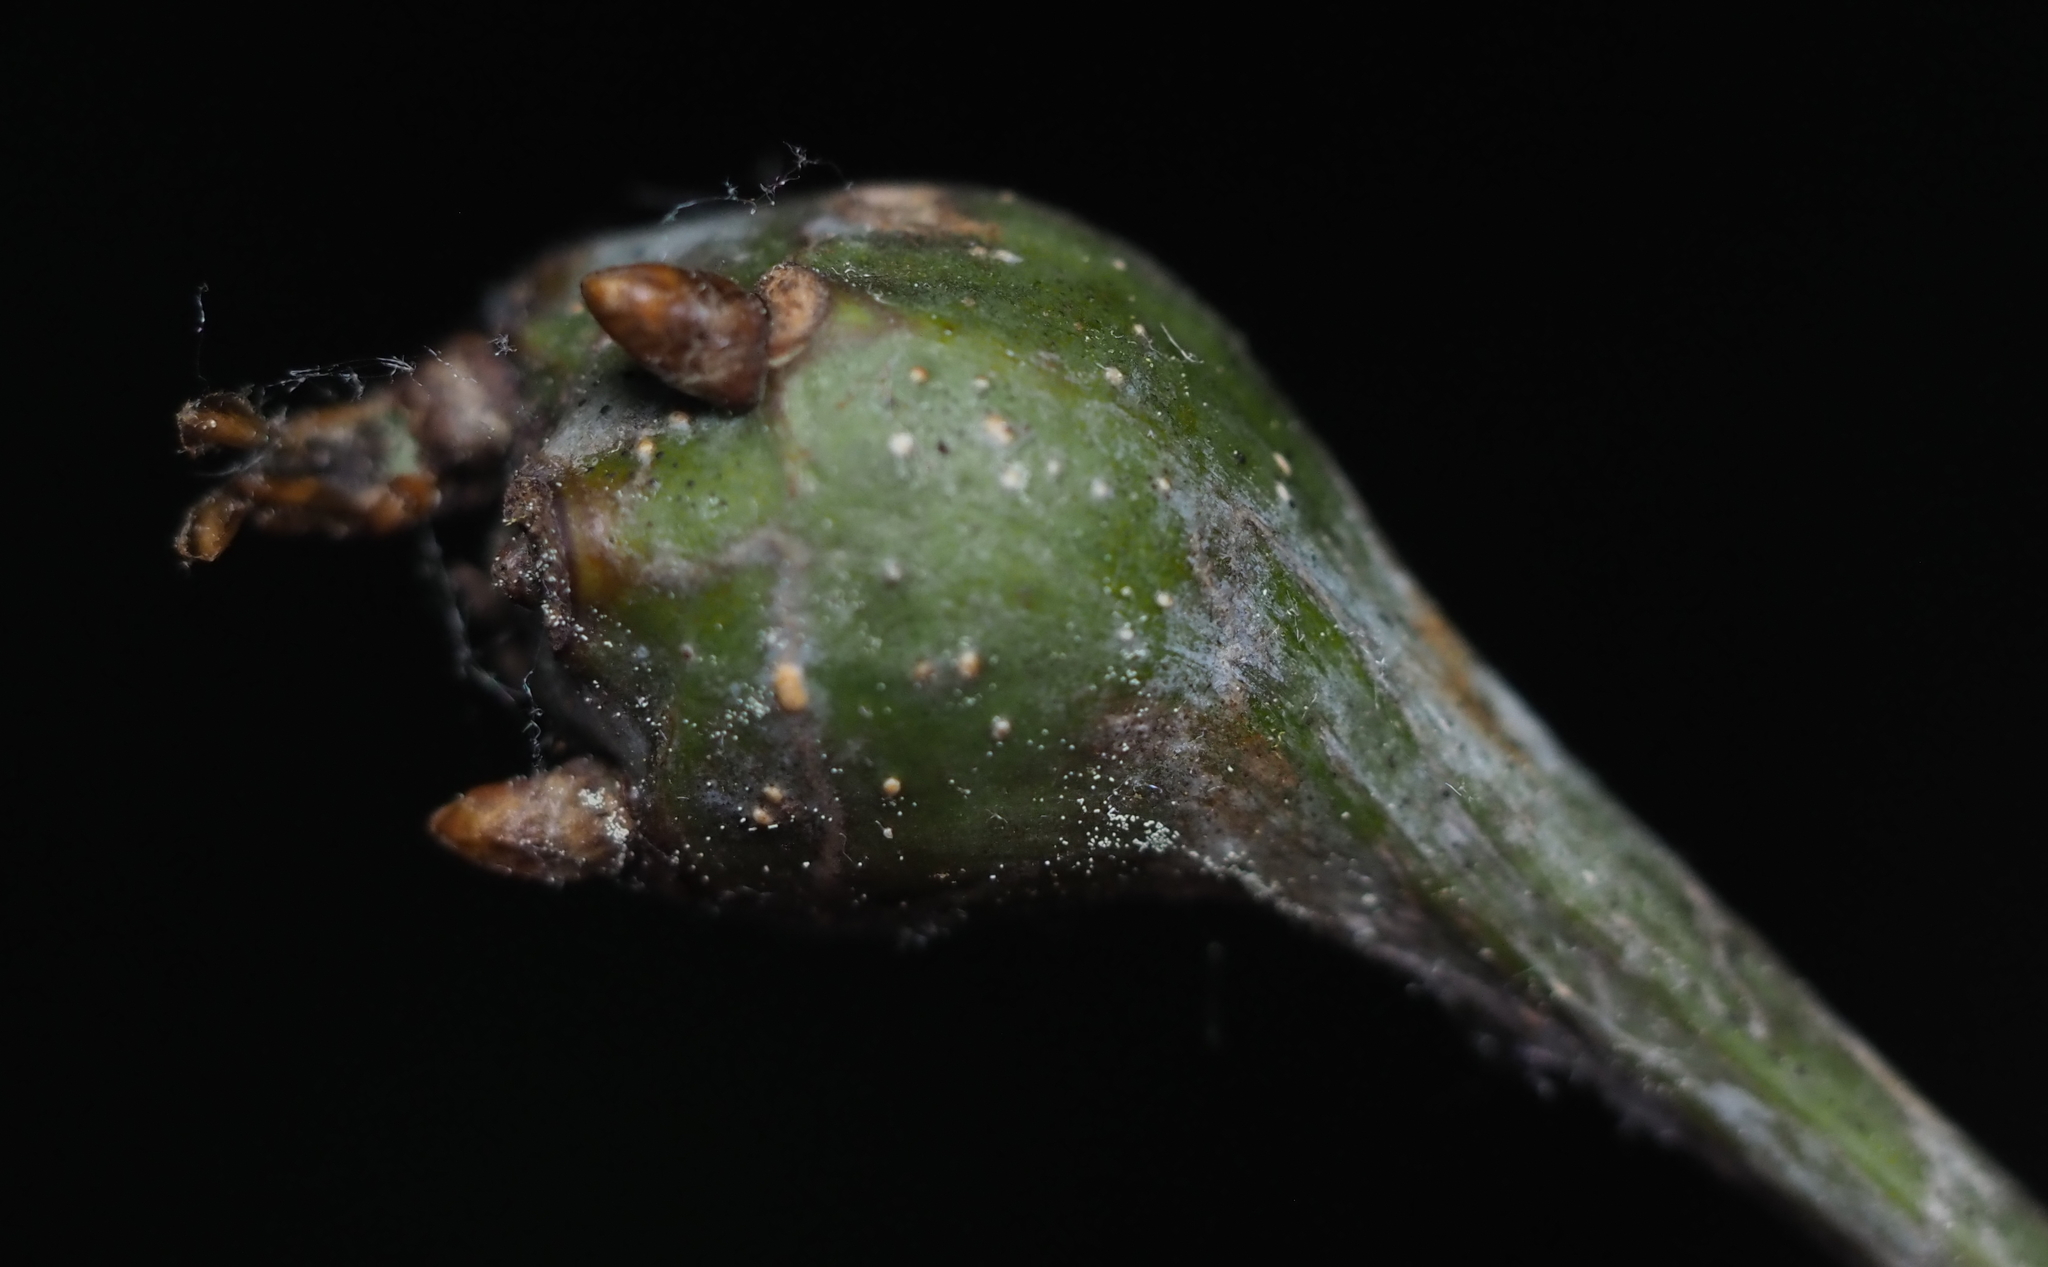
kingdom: Animalia
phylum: Arthropoda
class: Insecta
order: Hymenoptera
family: Cynipidae
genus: Callirhytis
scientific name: Callirhytis clavula
